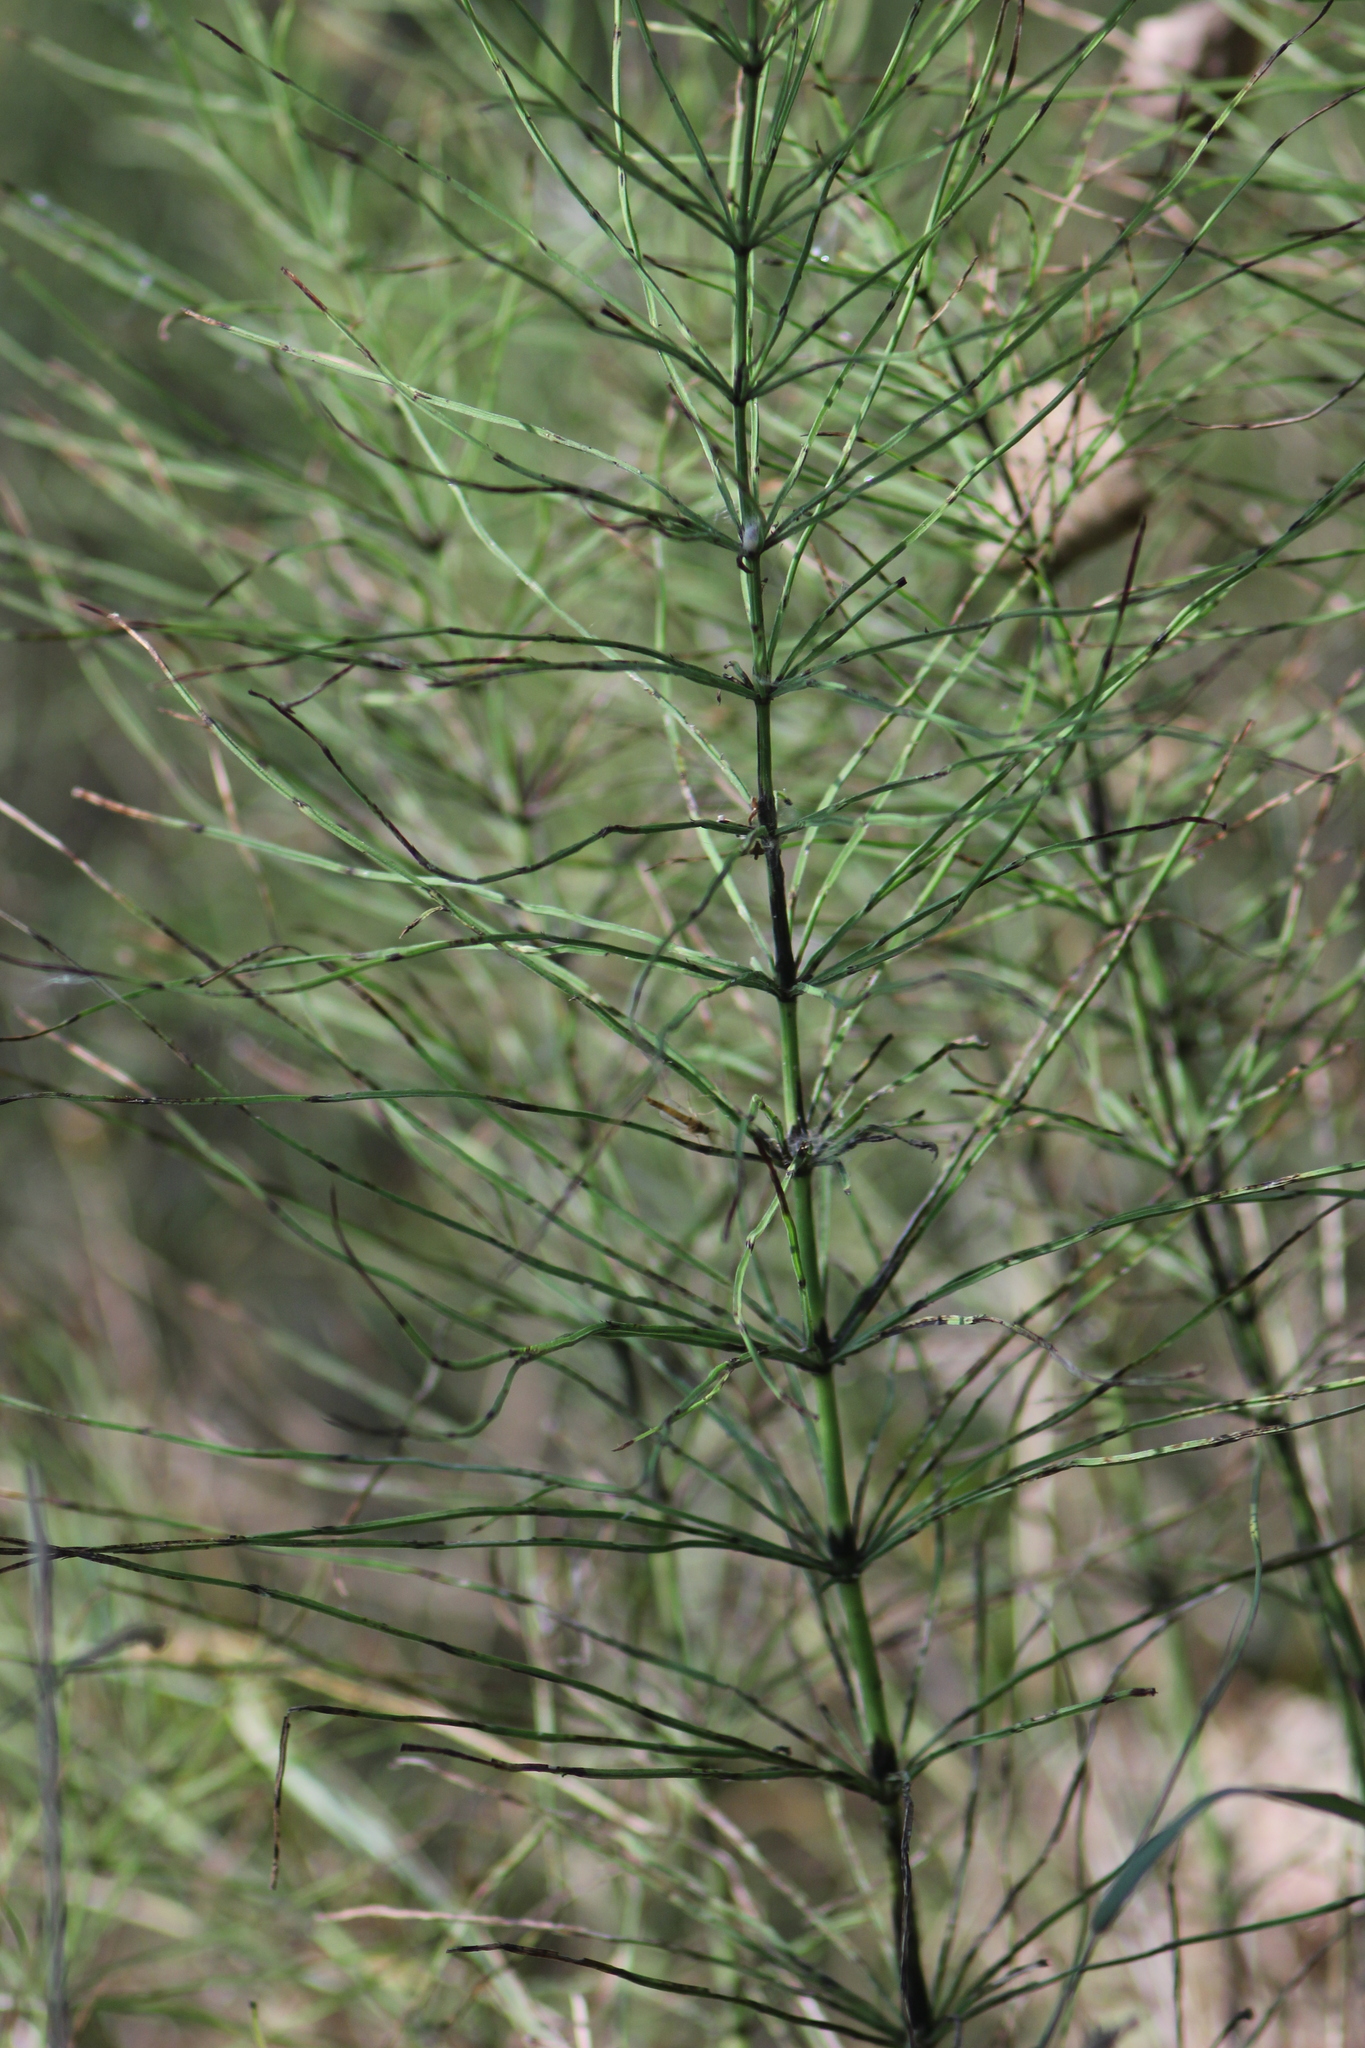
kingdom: Plantae
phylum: Tracheophyta
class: Polypodiopsida
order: Equisetales
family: Equisetaceae
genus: Equisetum
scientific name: Equisetum arvense
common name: Field horsetail
